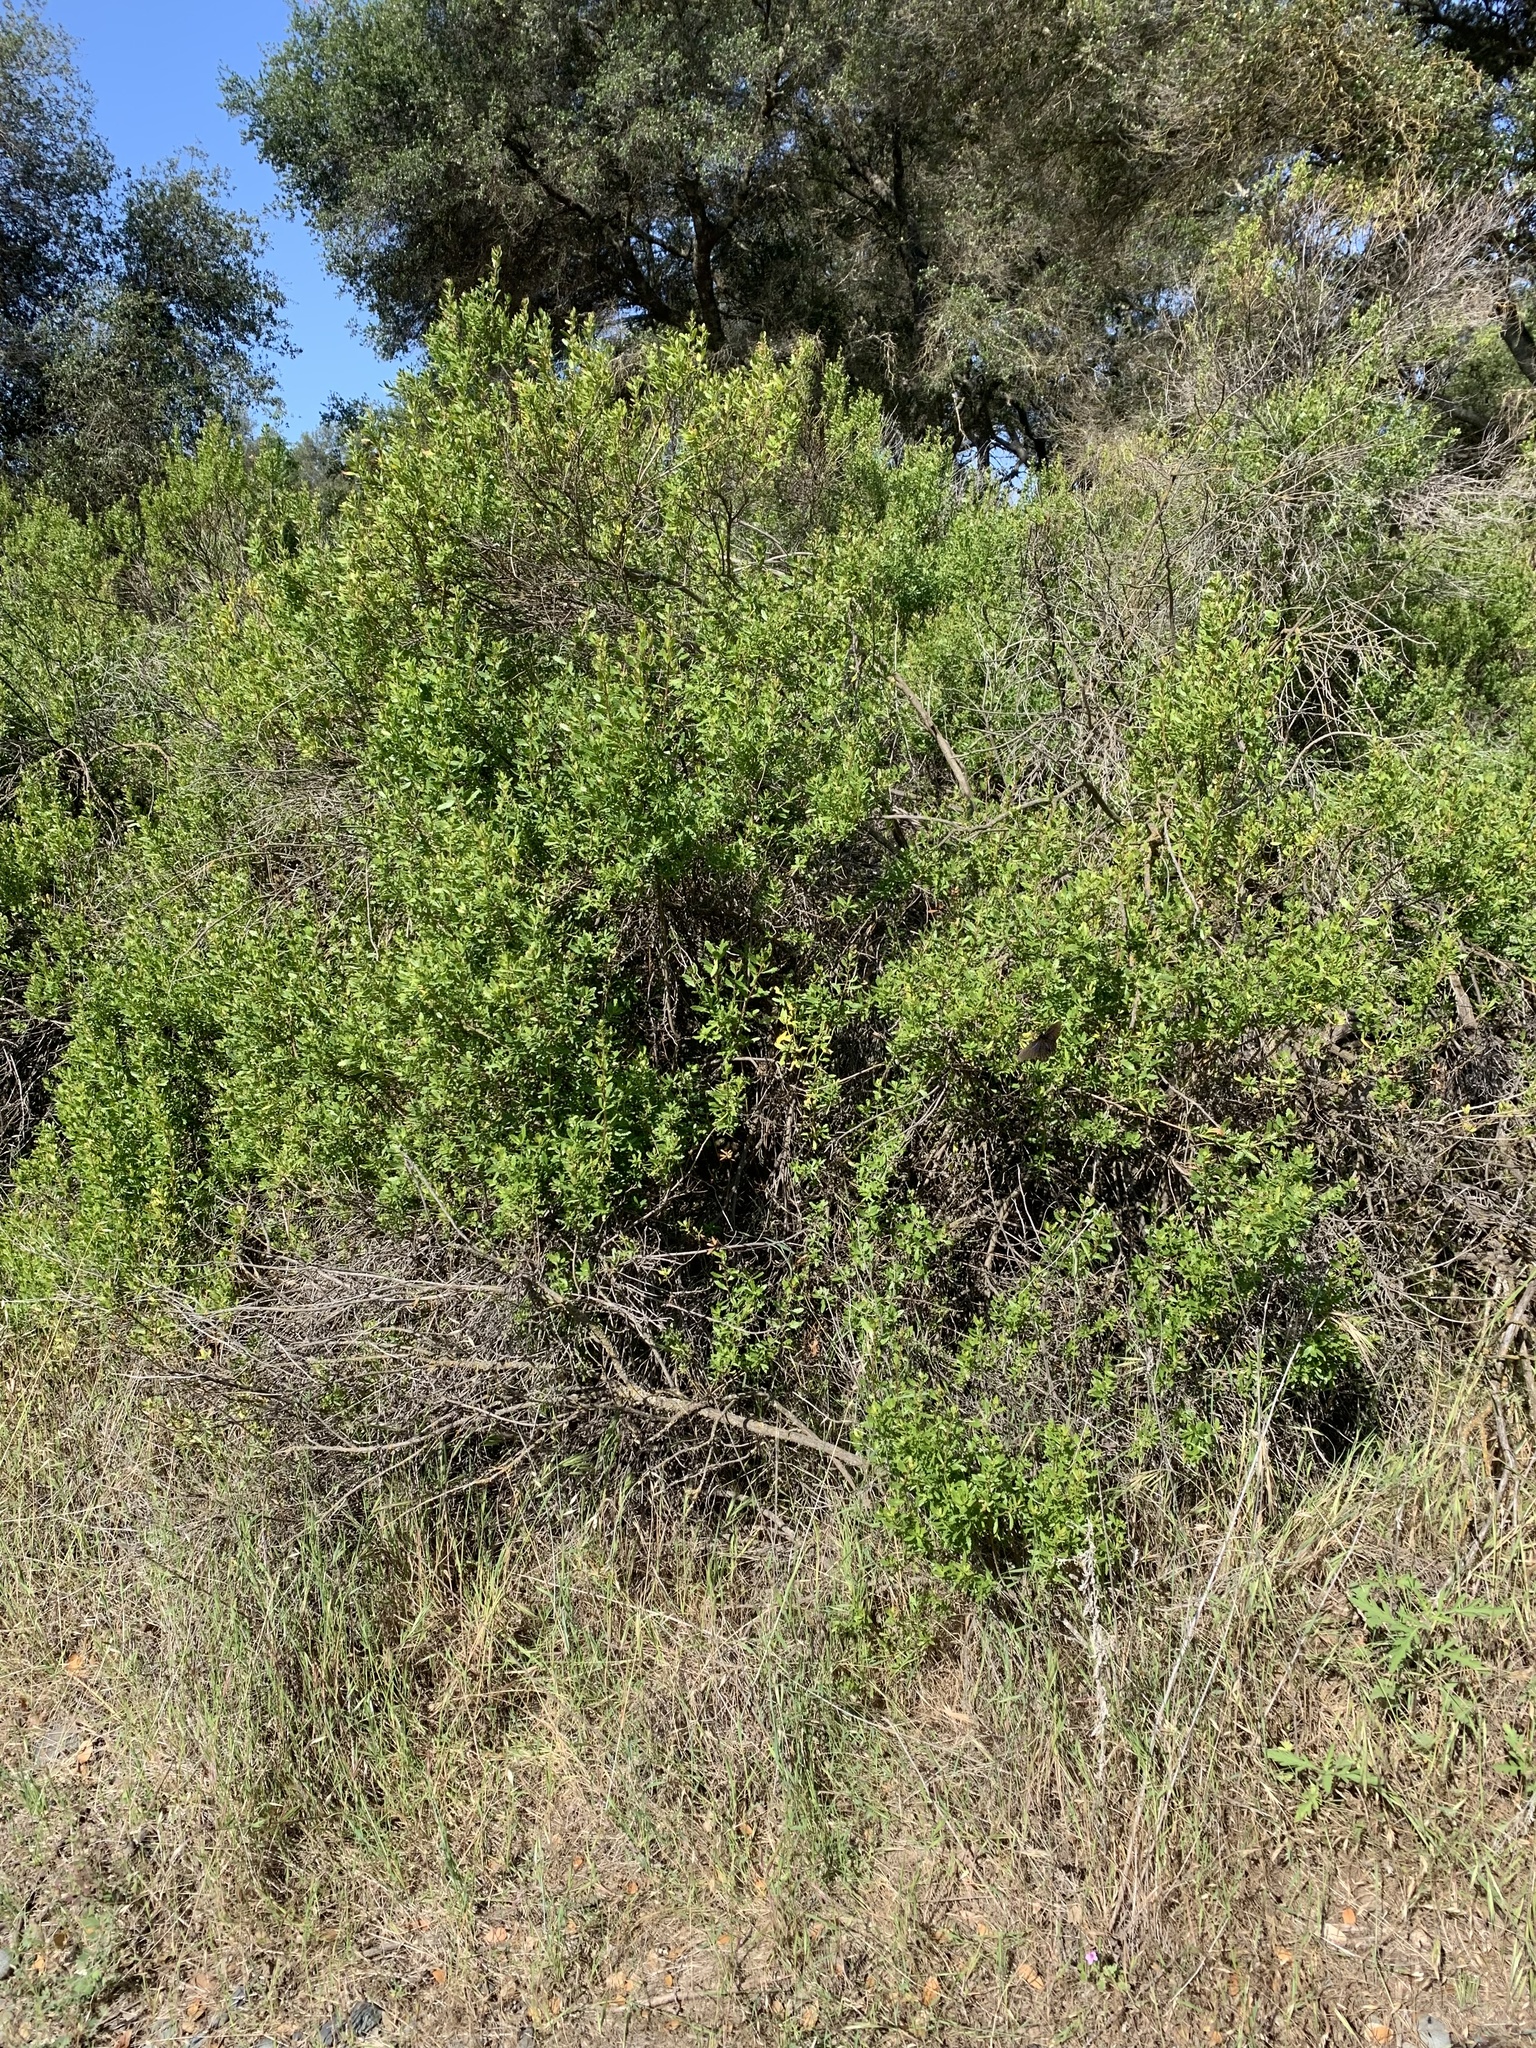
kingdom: Plantae
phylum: Tracheophyta
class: Magnoliopsida
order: Asterales
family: Asteraceae
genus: Baccharis
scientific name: Baccharis pilularis
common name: Coyotebrush
